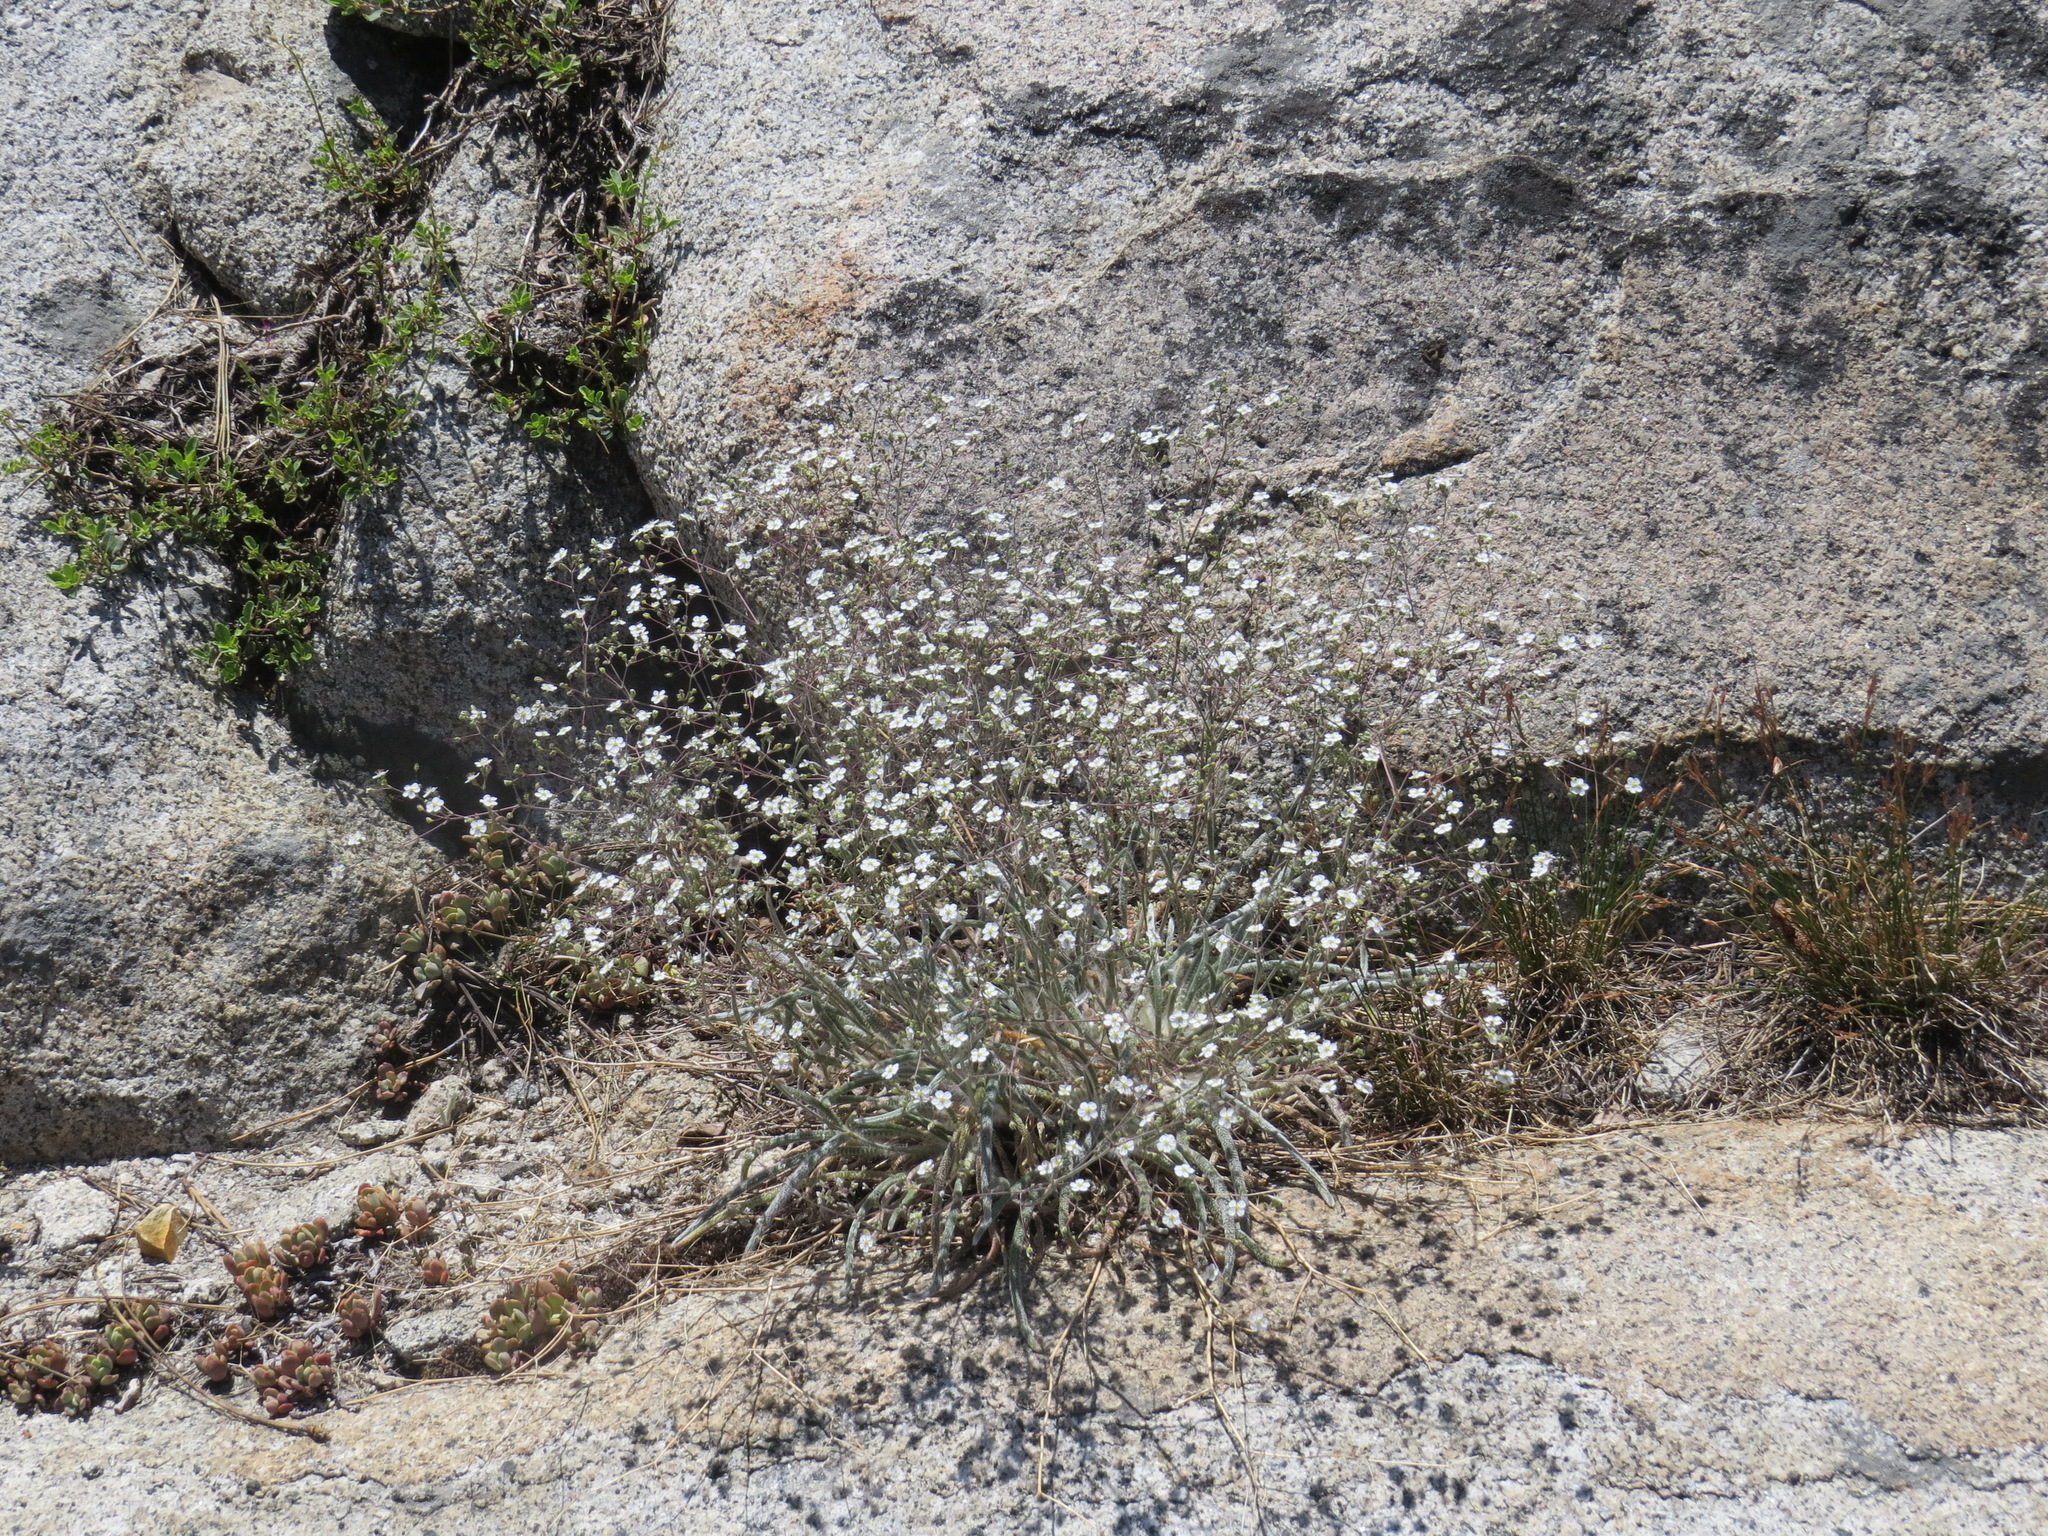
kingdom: Plantae
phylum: Tracheophyta
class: Magnoliopsida
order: Rosales
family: Rosaceae
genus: Potentilla
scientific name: Potentilla santolinoides
